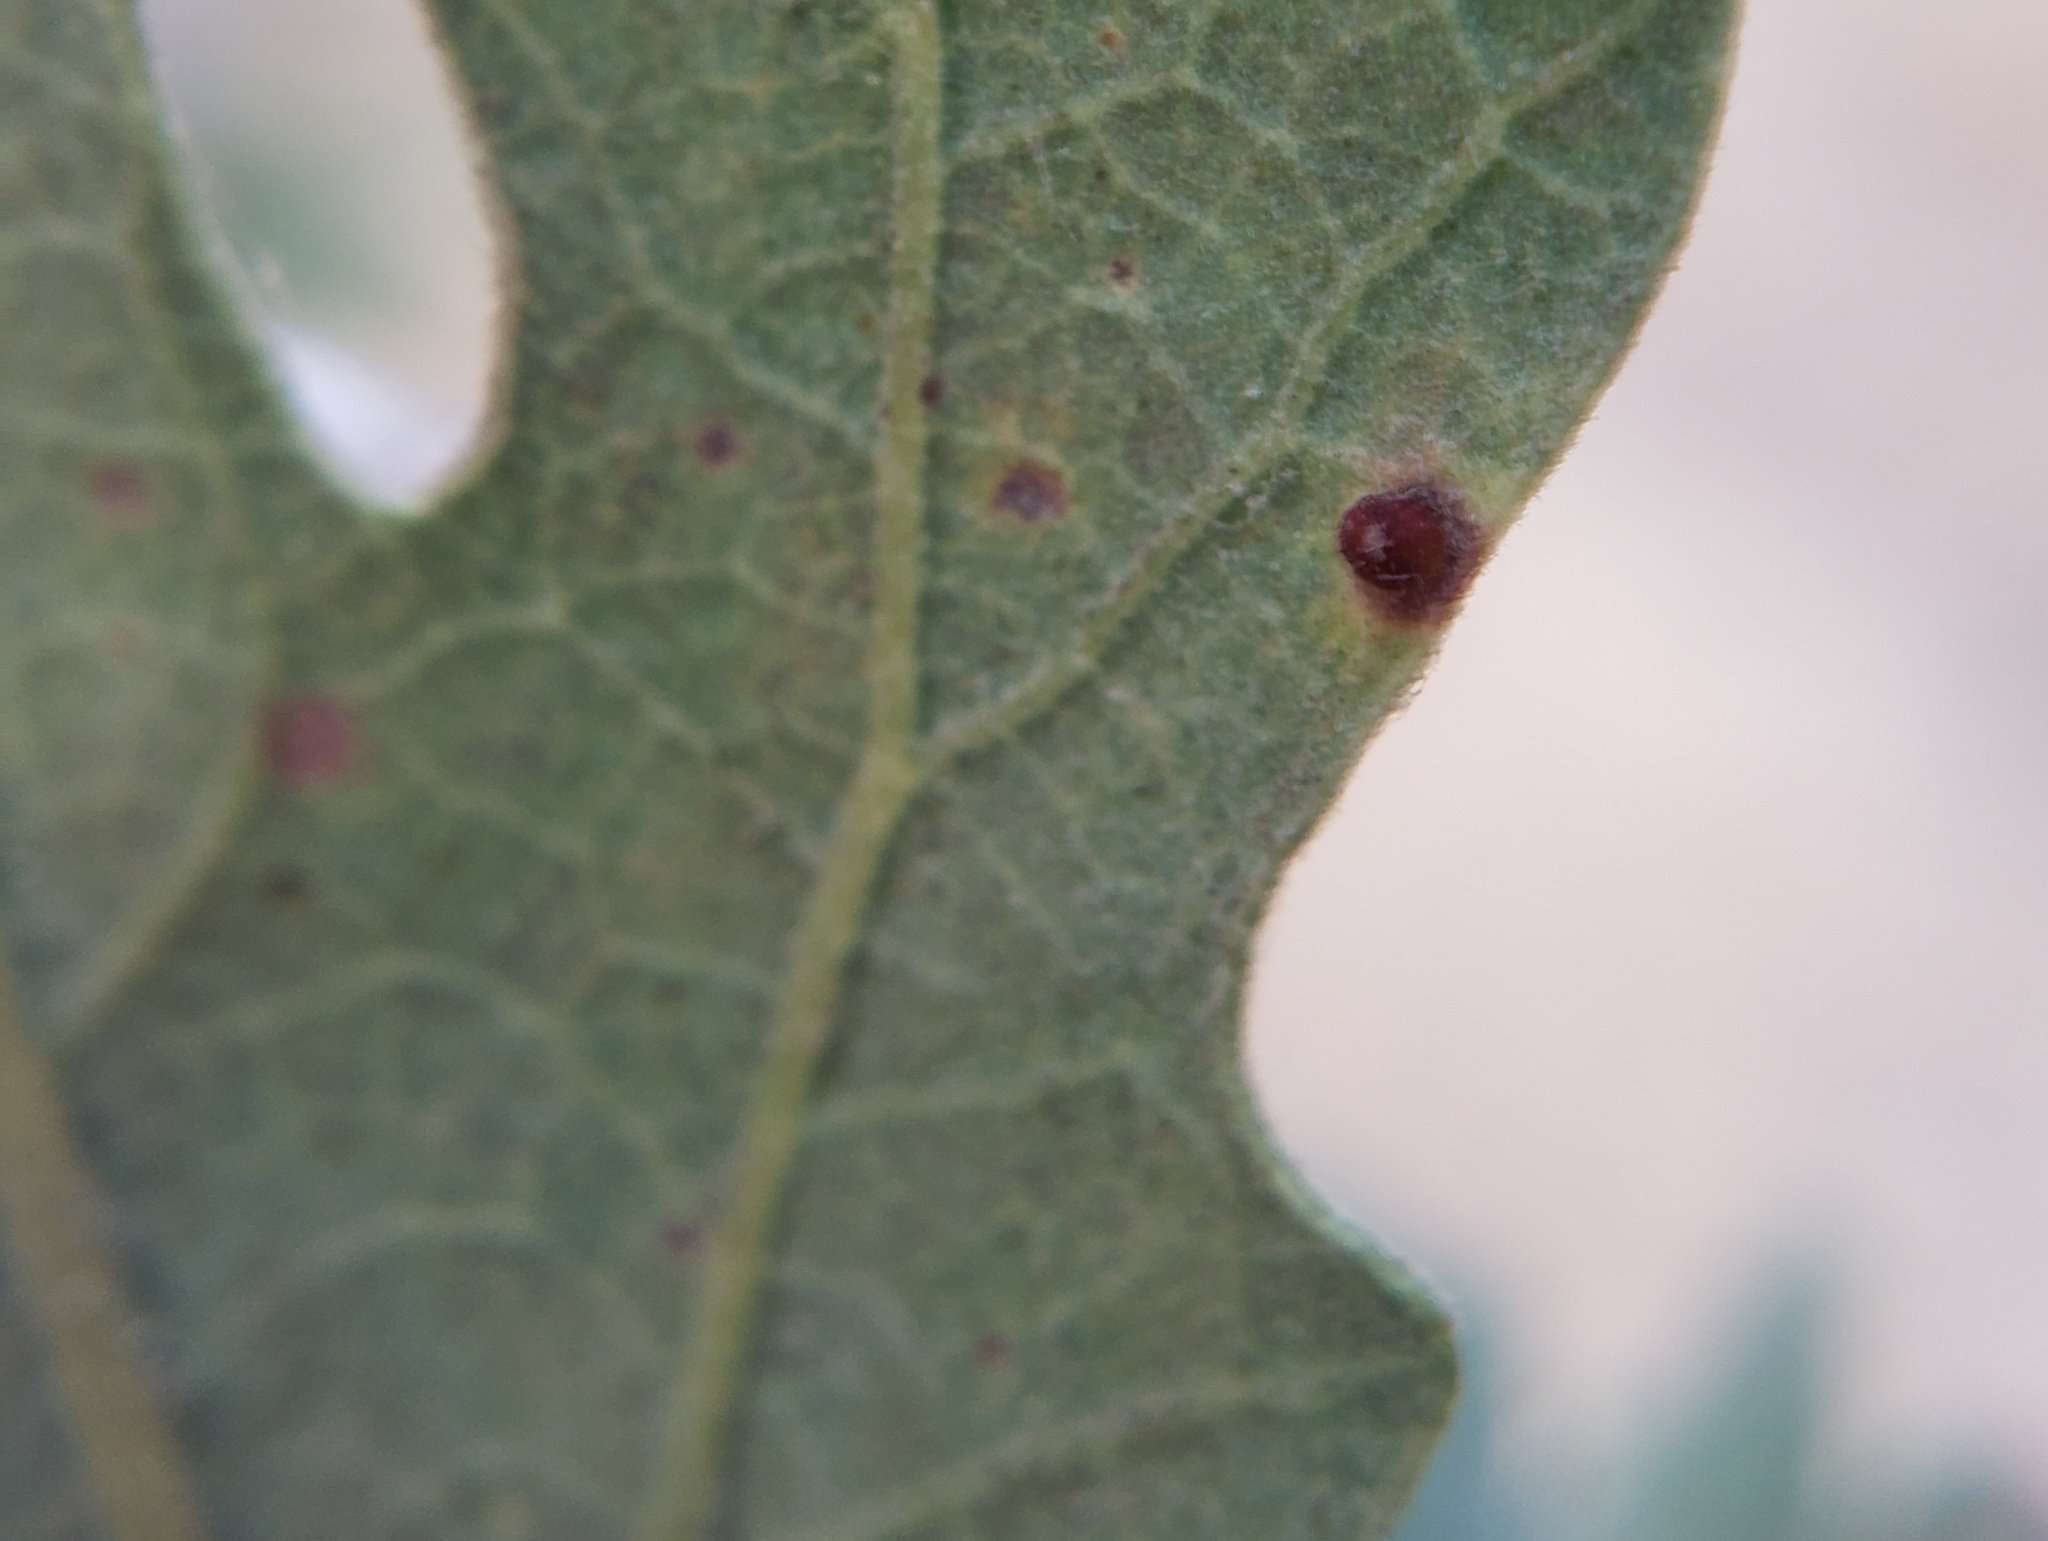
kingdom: Animalia
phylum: Arthropoda
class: Insecta
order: Hymenoptera
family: Cynipidae
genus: Neuroterus
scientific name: Neuroterus saltarius
